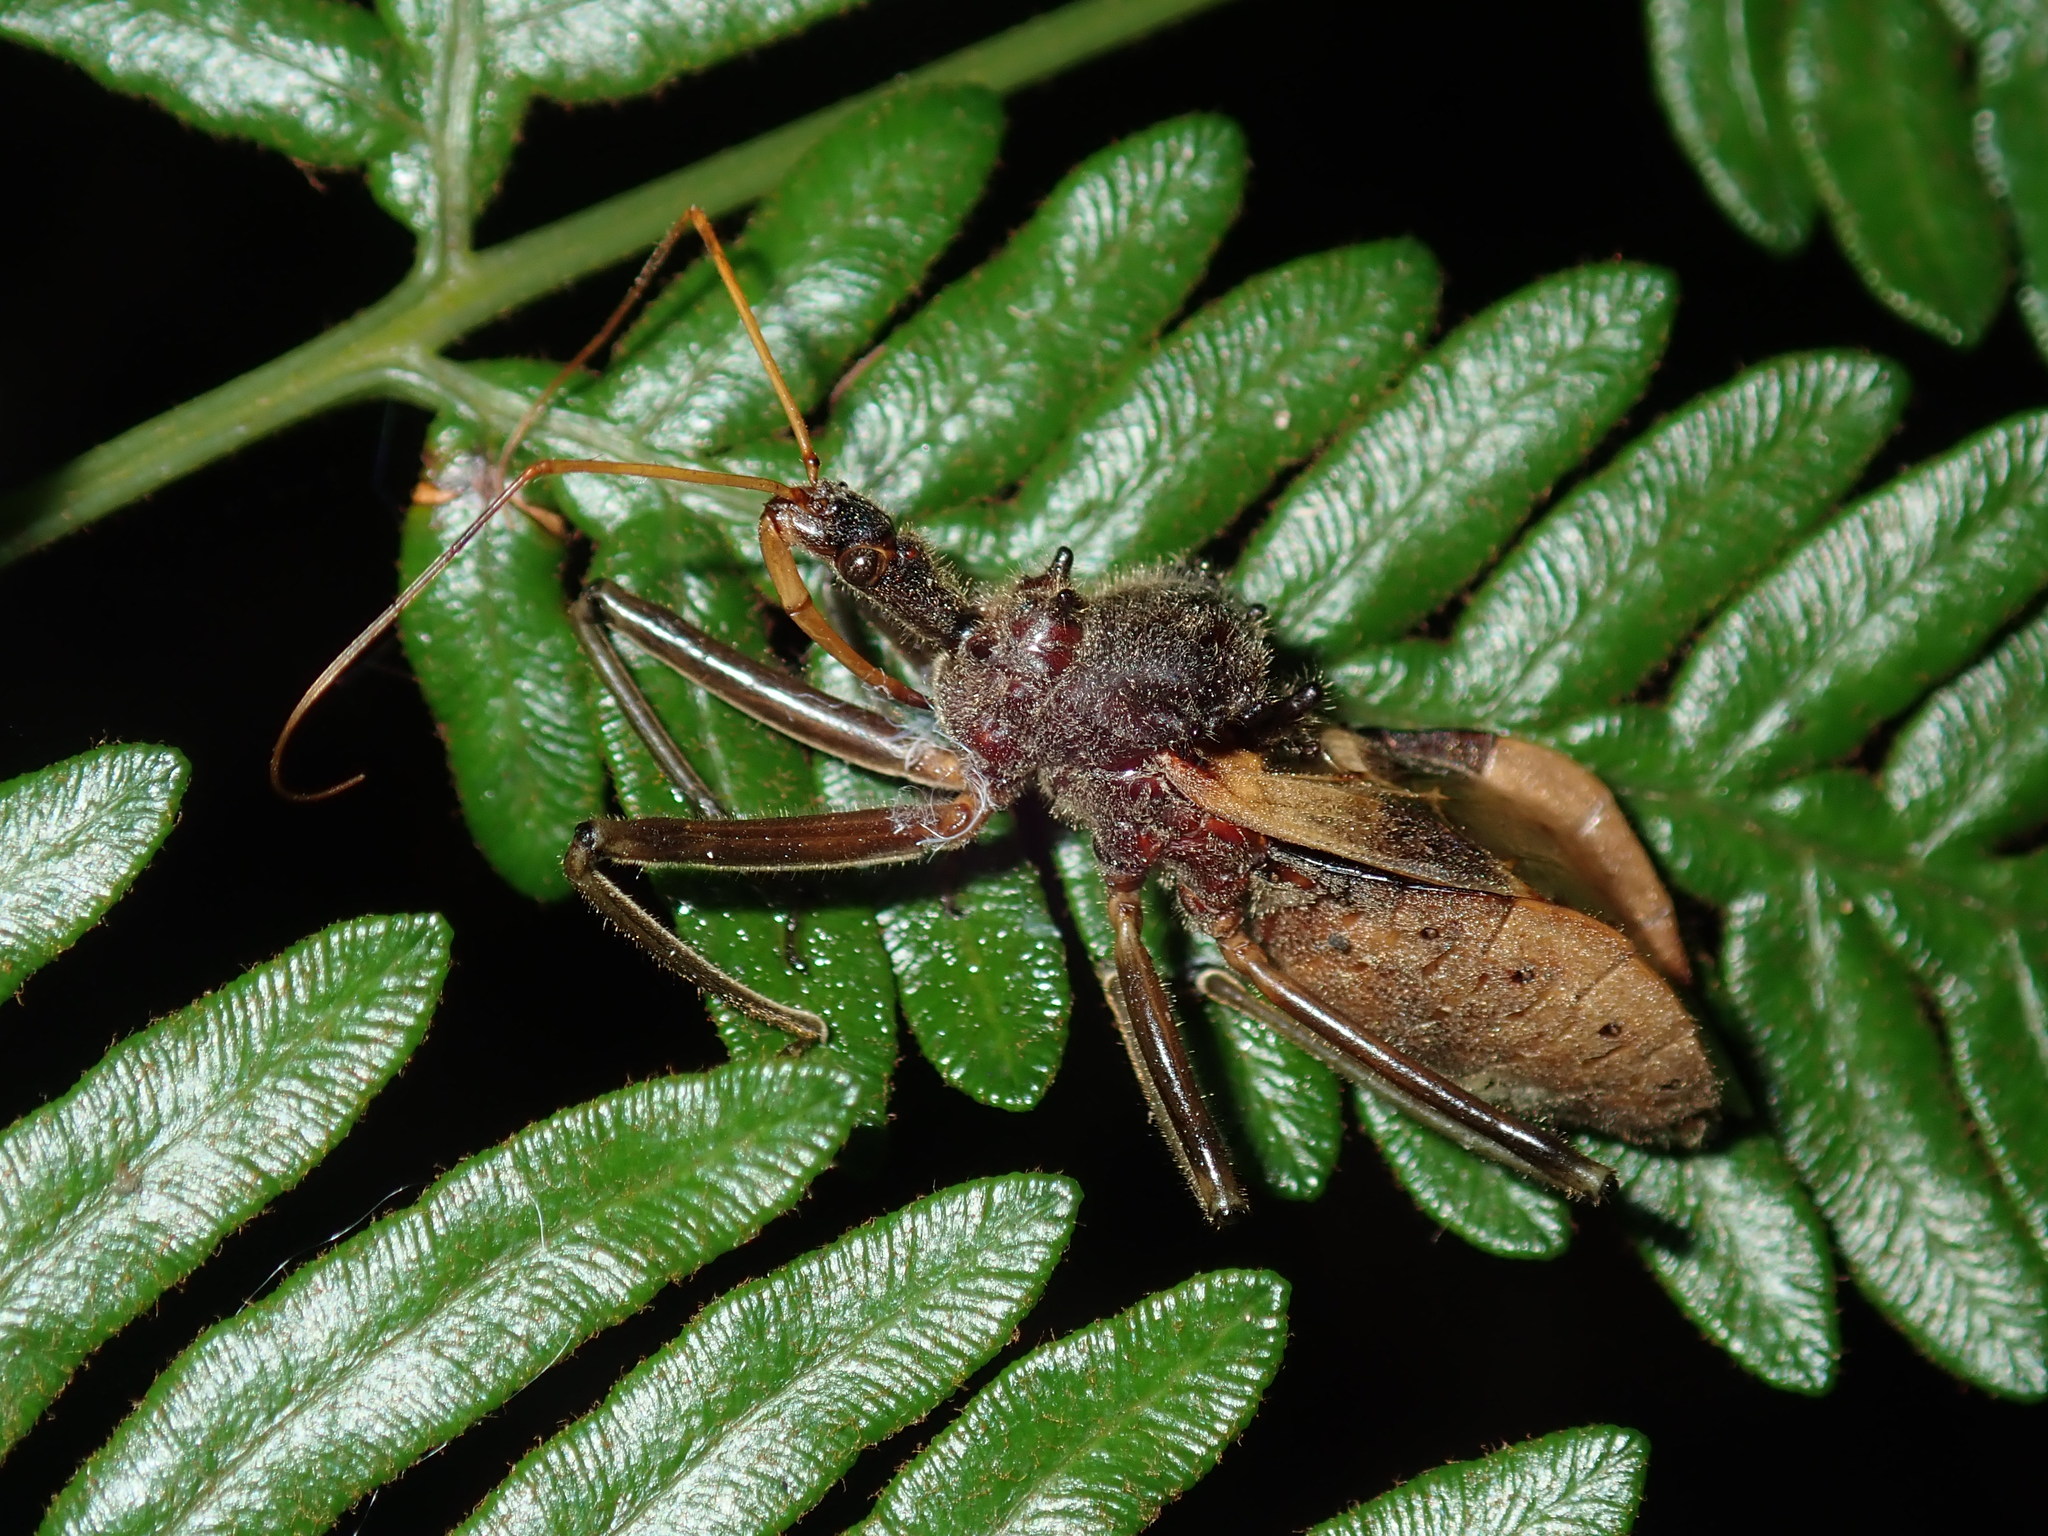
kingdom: Animalia
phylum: Arthropoda
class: Insecta
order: Hemiptera
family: Reduviidae
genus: Pristhesancus
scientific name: Pristhesancus plagipennis
